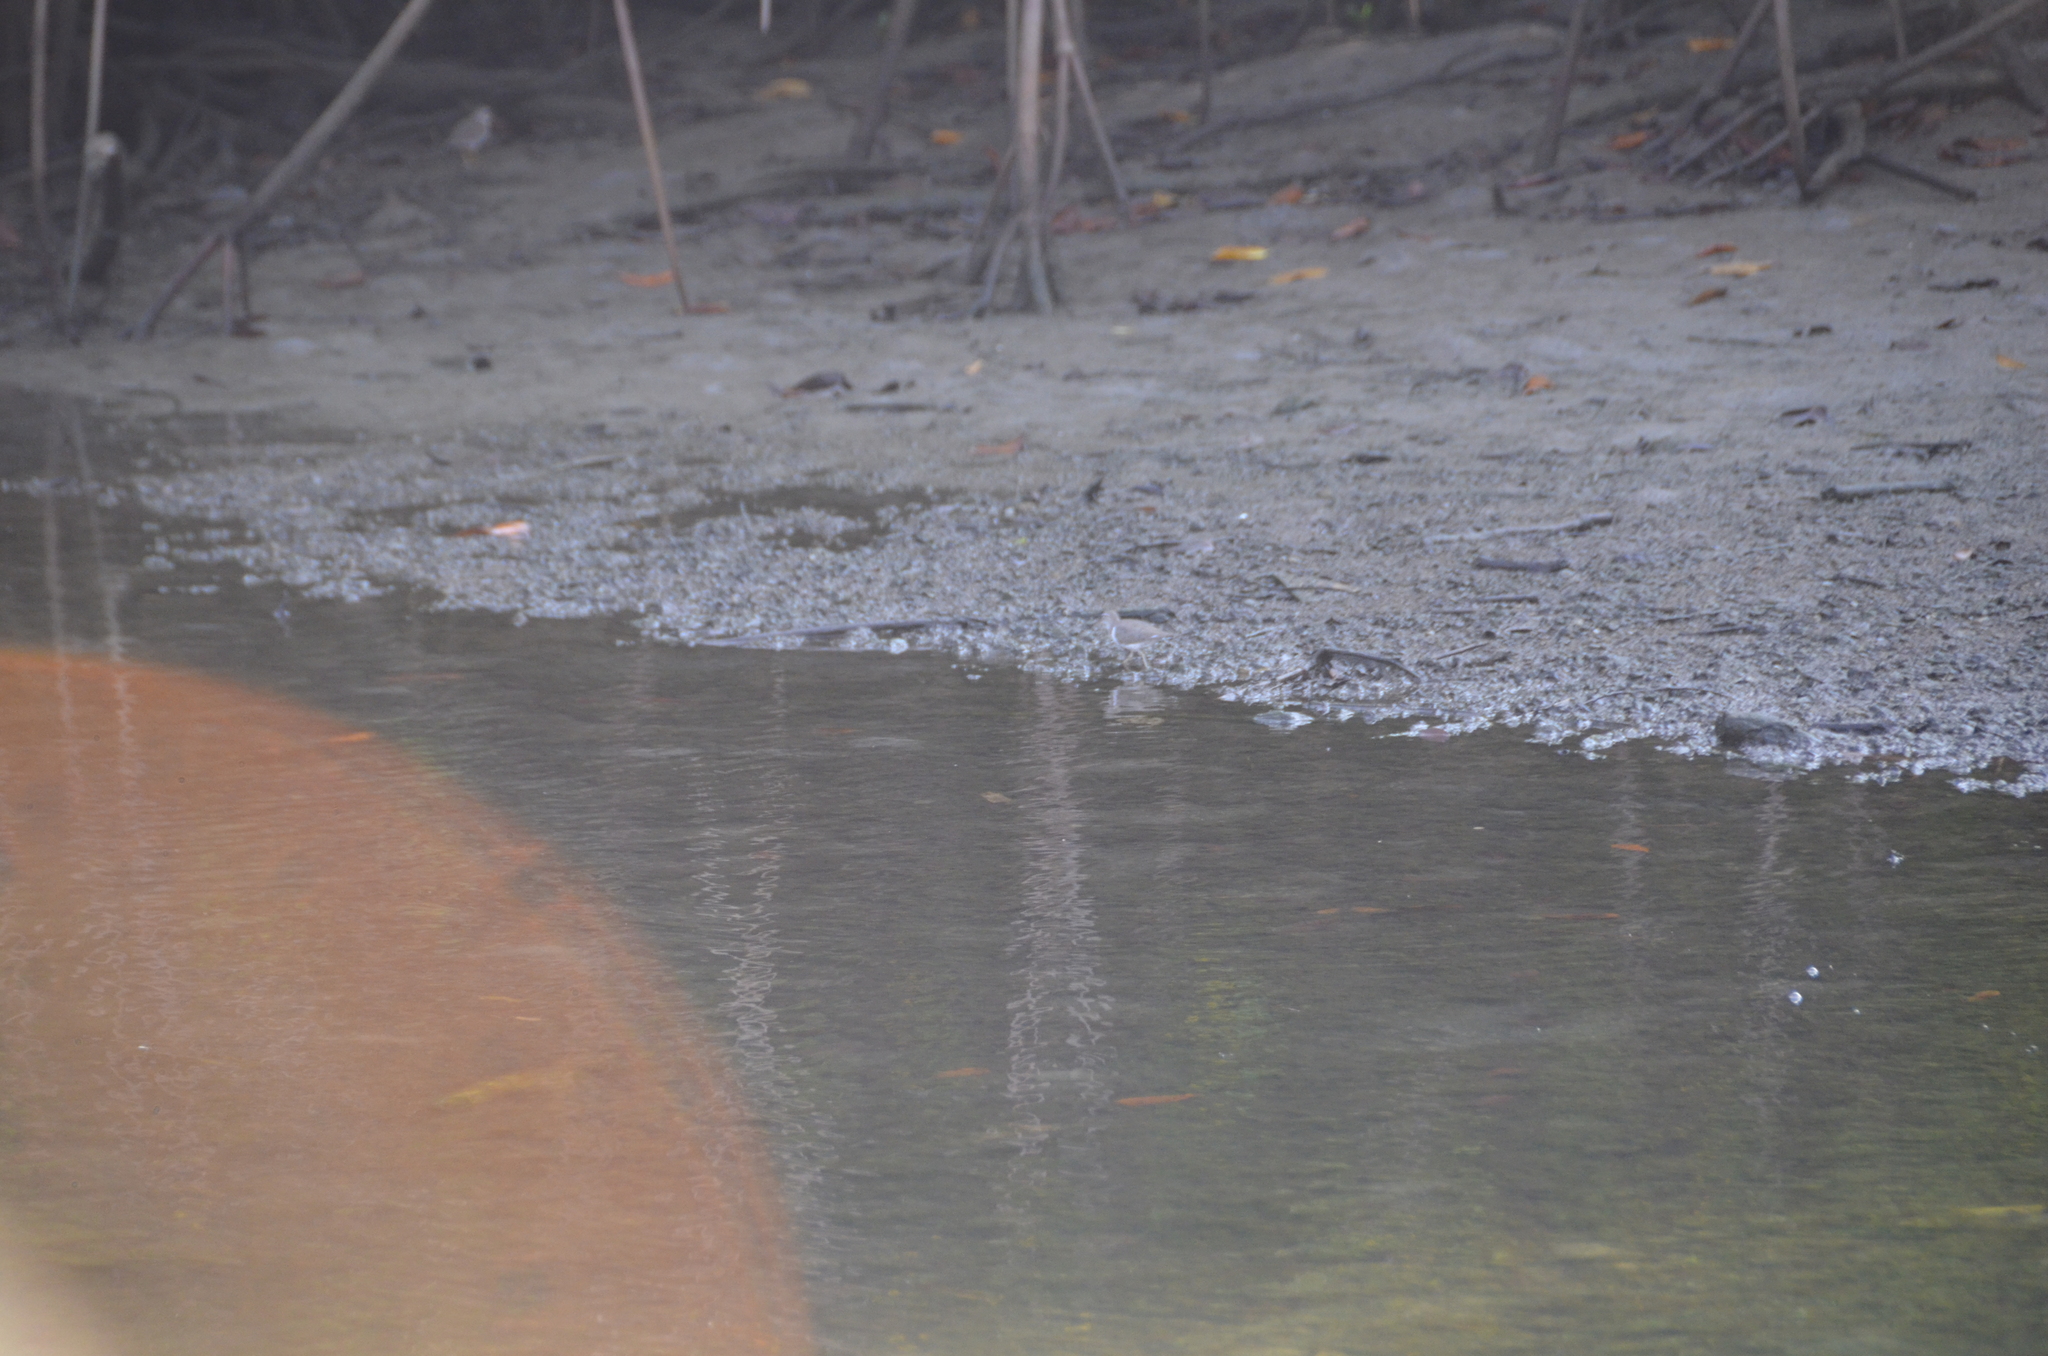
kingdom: Animalia
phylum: Chordata
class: Aves
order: Charadriiformes
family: Scolopacidae
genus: Actitis
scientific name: Actitis macularius
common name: Spotted sandpiper
